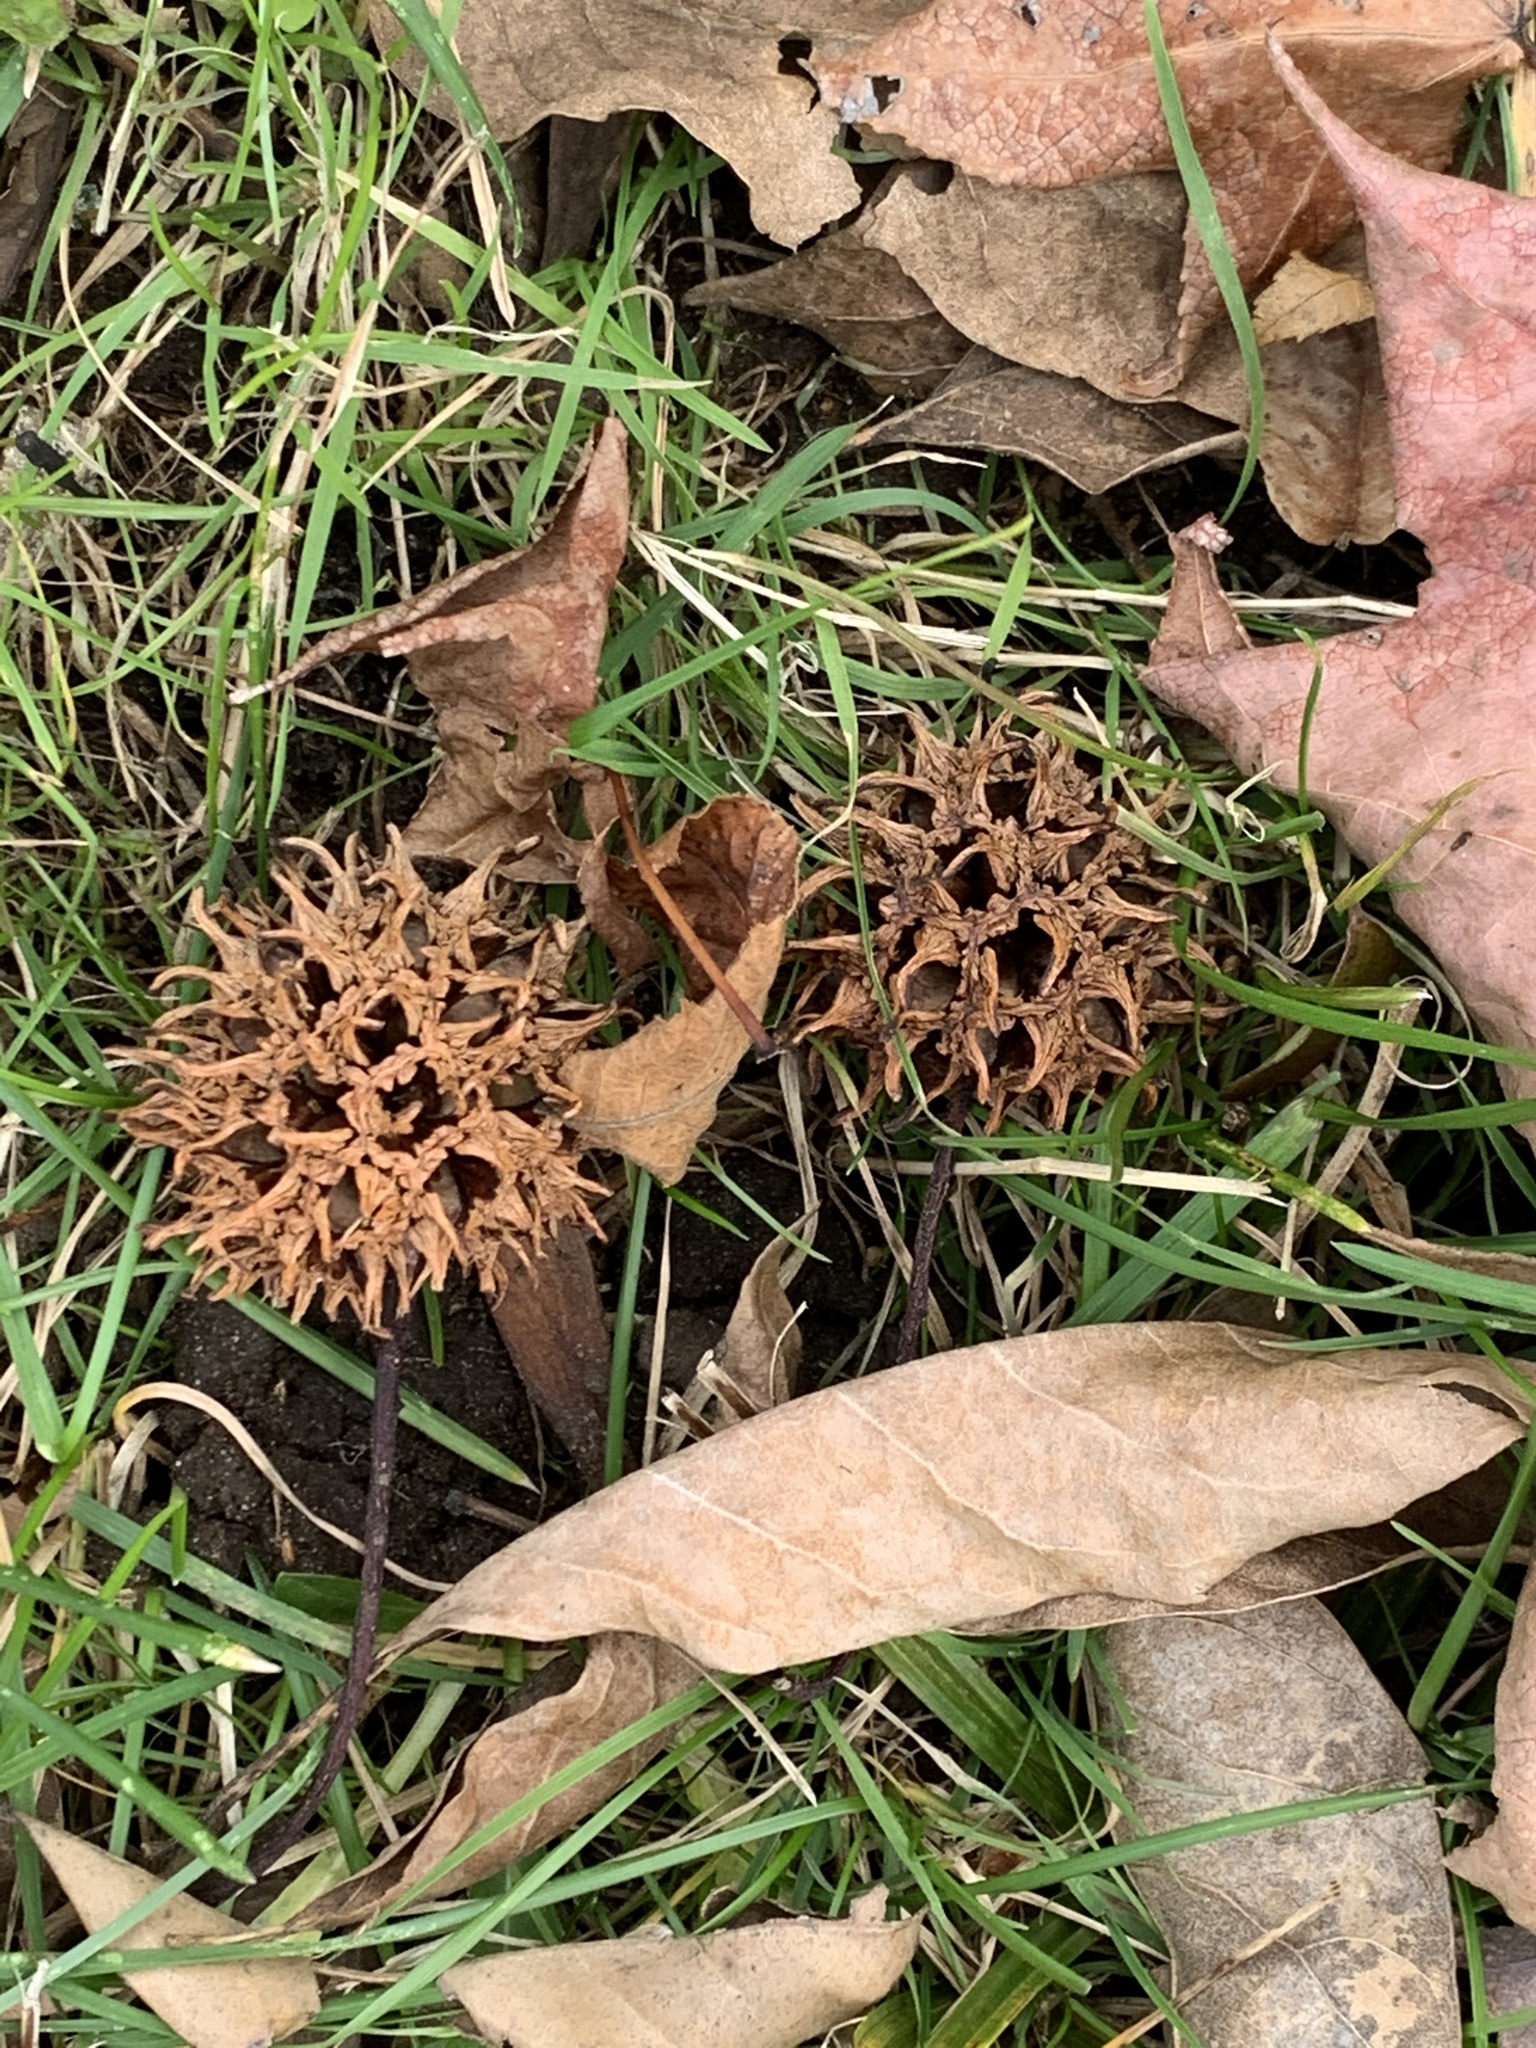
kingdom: Plantae
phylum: Tracheophyta
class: Magnoliopsida
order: Saxifragales
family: Altingiaceae
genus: Liquidambar
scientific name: Liquidambar styraciflua
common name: Sweet gum
